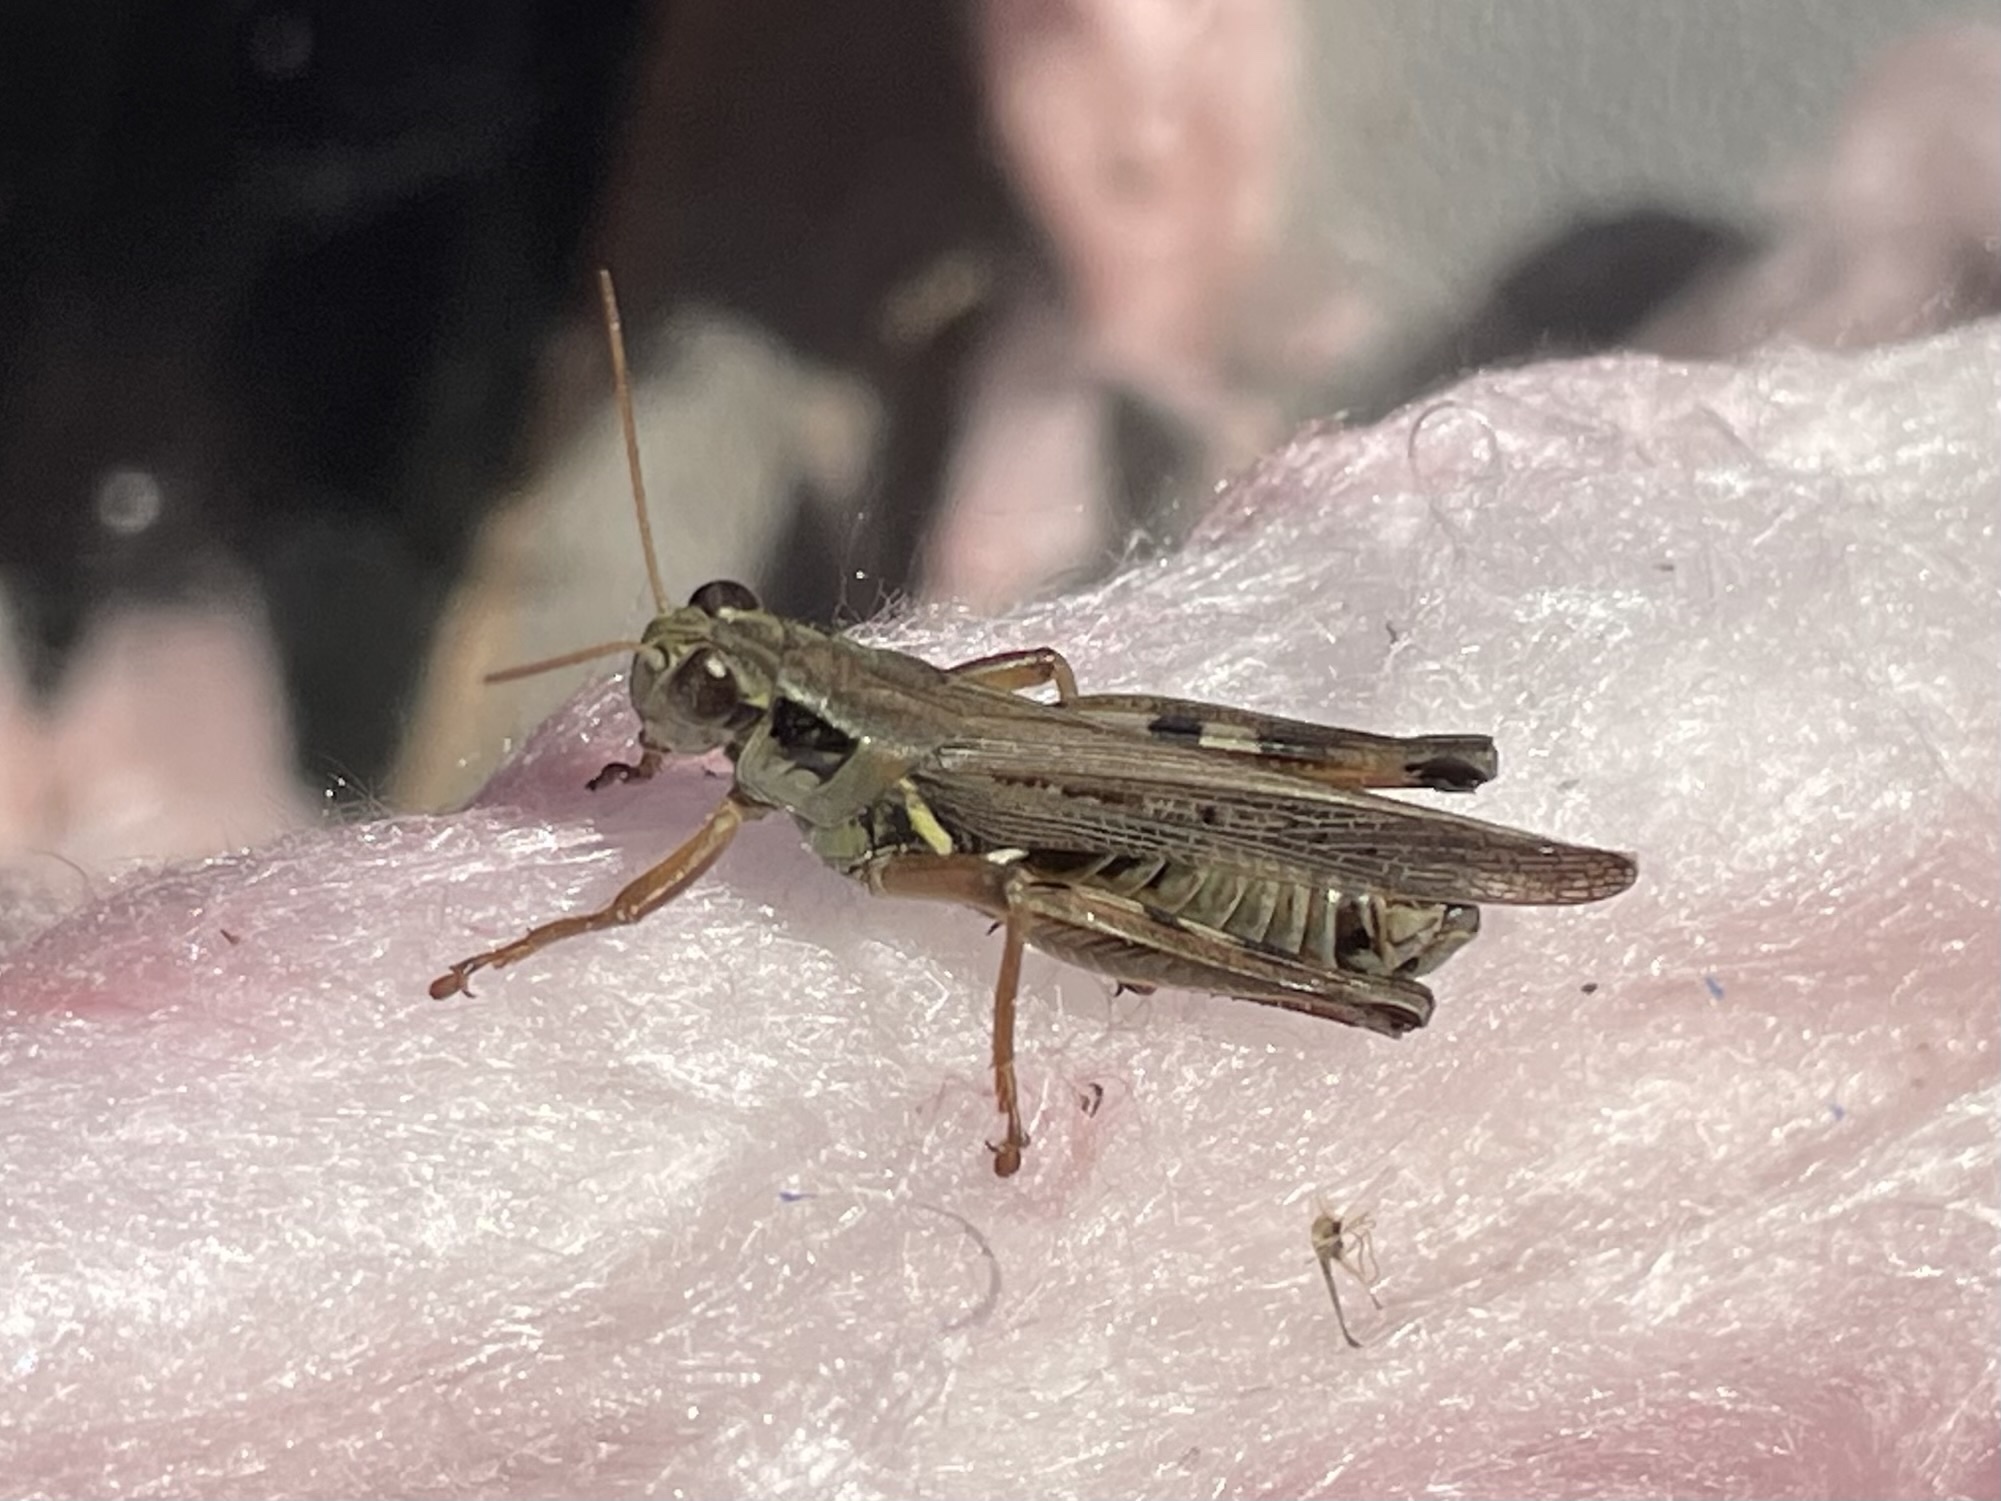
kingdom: Animalia
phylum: Arthropoda
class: Insecta
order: Orthoptera
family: Acrididae
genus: Melanoplus
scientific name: Melanoplus femurrubrum
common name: Red-legged grasshopper
